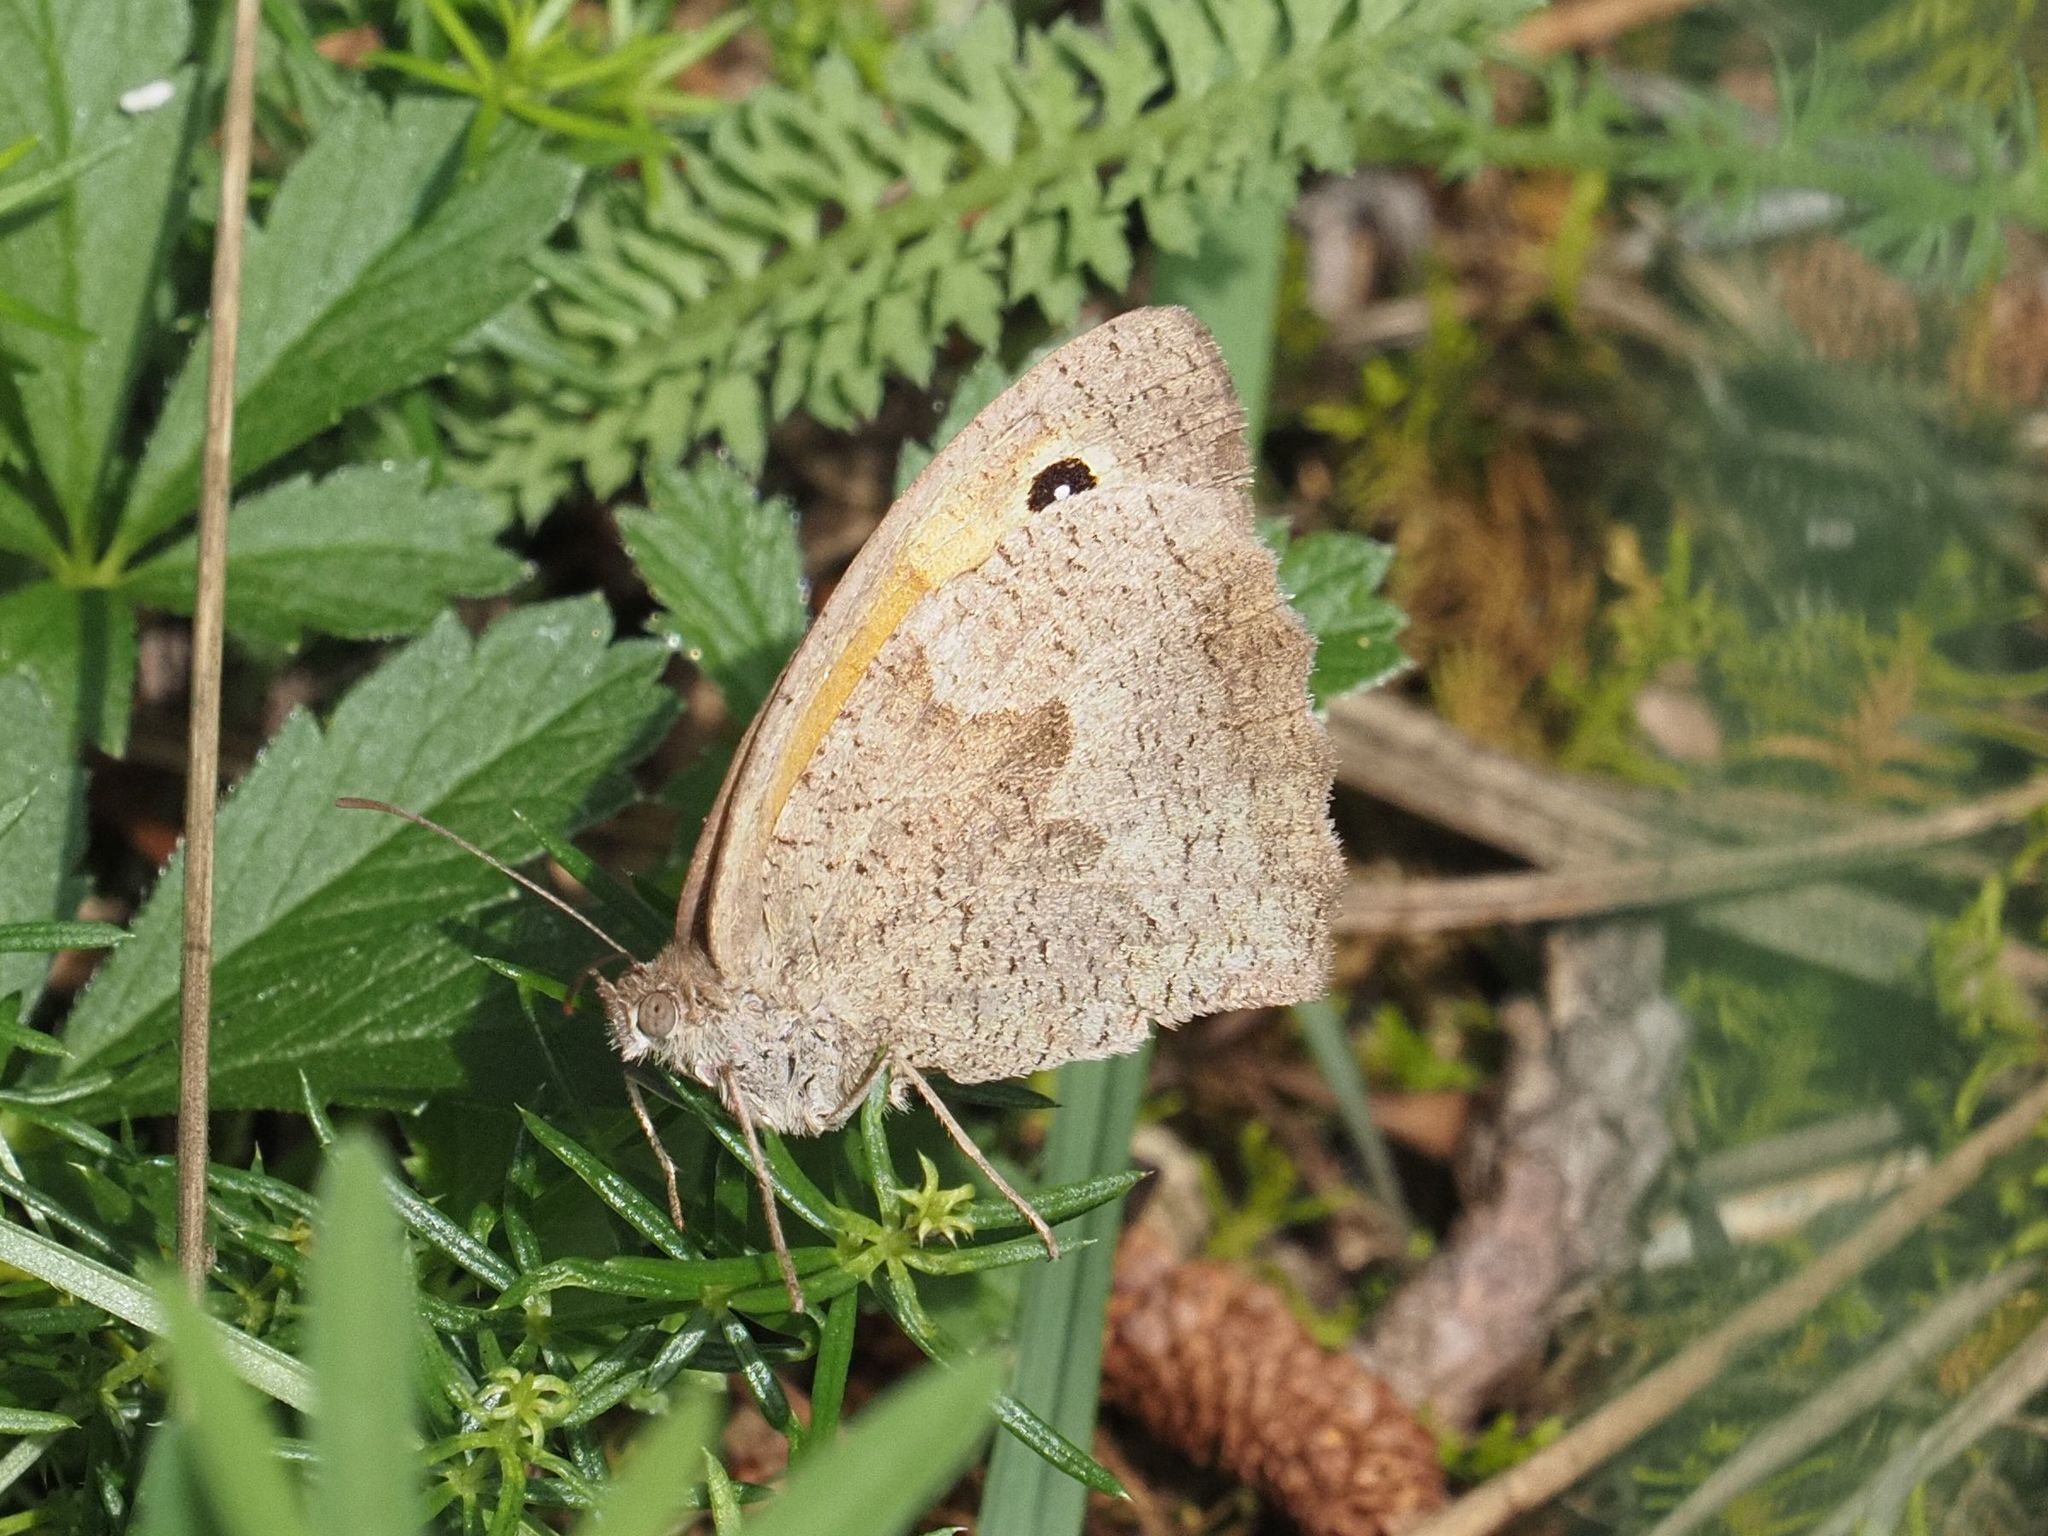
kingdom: Animalia
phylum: Arthropoda
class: Insecta
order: Lepidoptera
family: Nymphalidae
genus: Maniola
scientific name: Maniola jurtina
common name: Meadow brown
